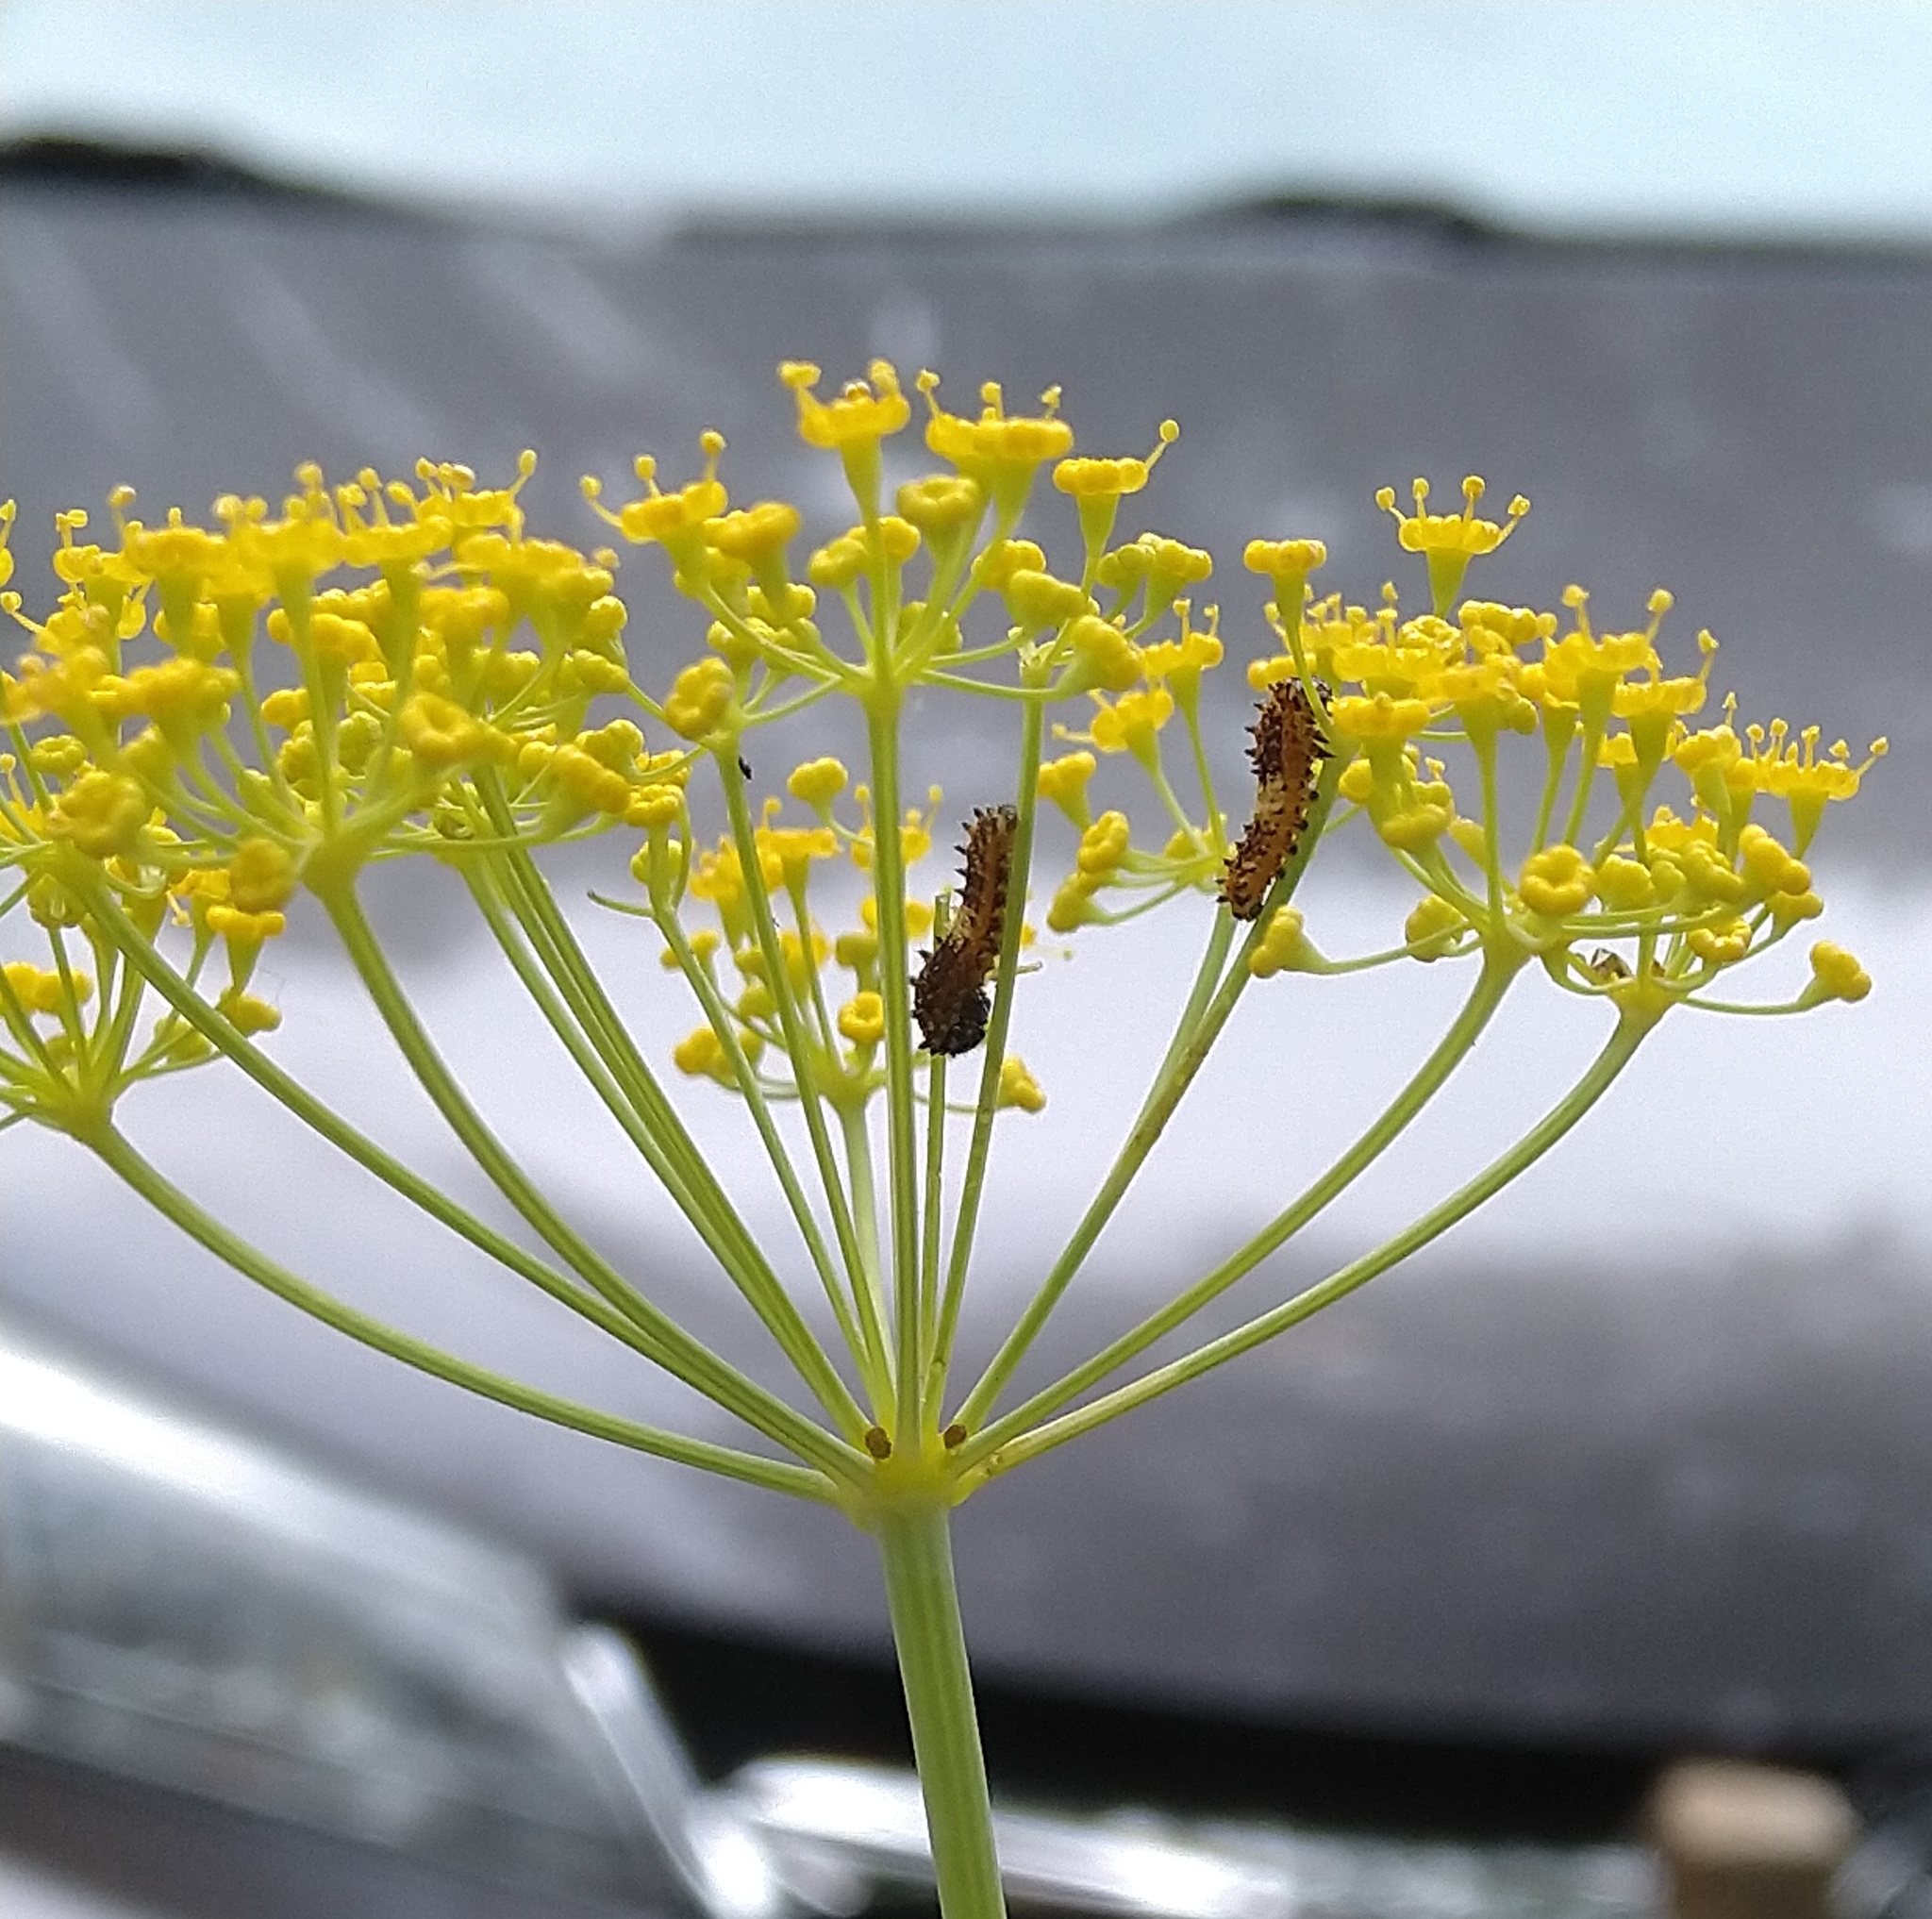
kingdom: Animalia
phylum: Arthropoda
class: Insecta
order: Lepidoptera
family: Papilionidae
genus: Papilio
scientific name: Papilio polyxenes
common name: Black swallowtail
